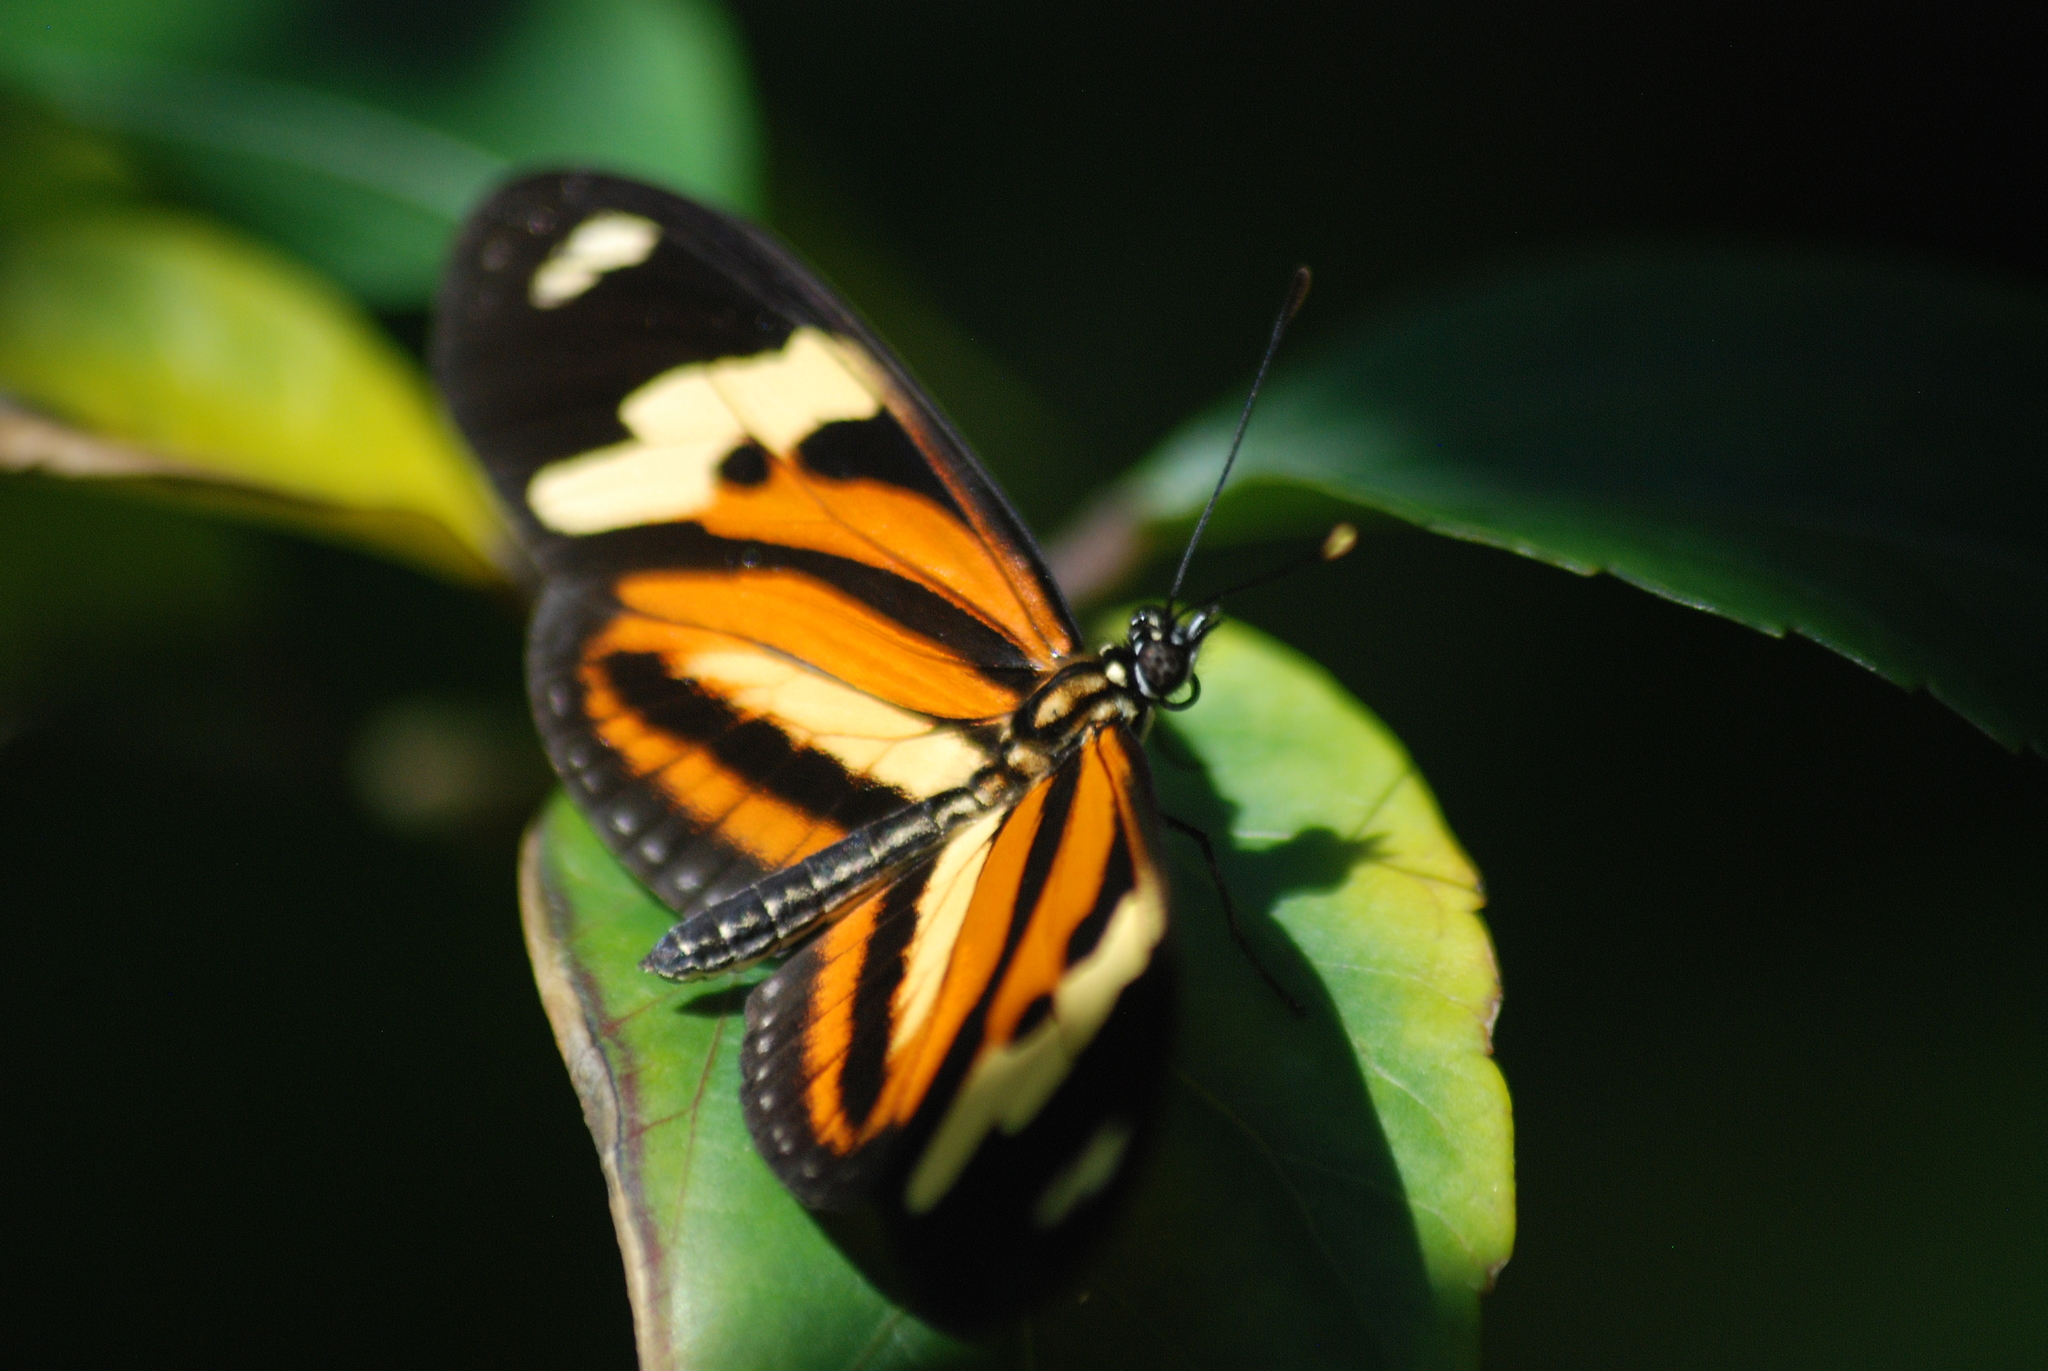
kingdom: Animalia
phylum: Arthropoda
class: Insecta
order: Lepidoptera
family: Nymphalidae
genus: Eueides
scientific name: Eueides isabella
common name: Isabella's longwing
